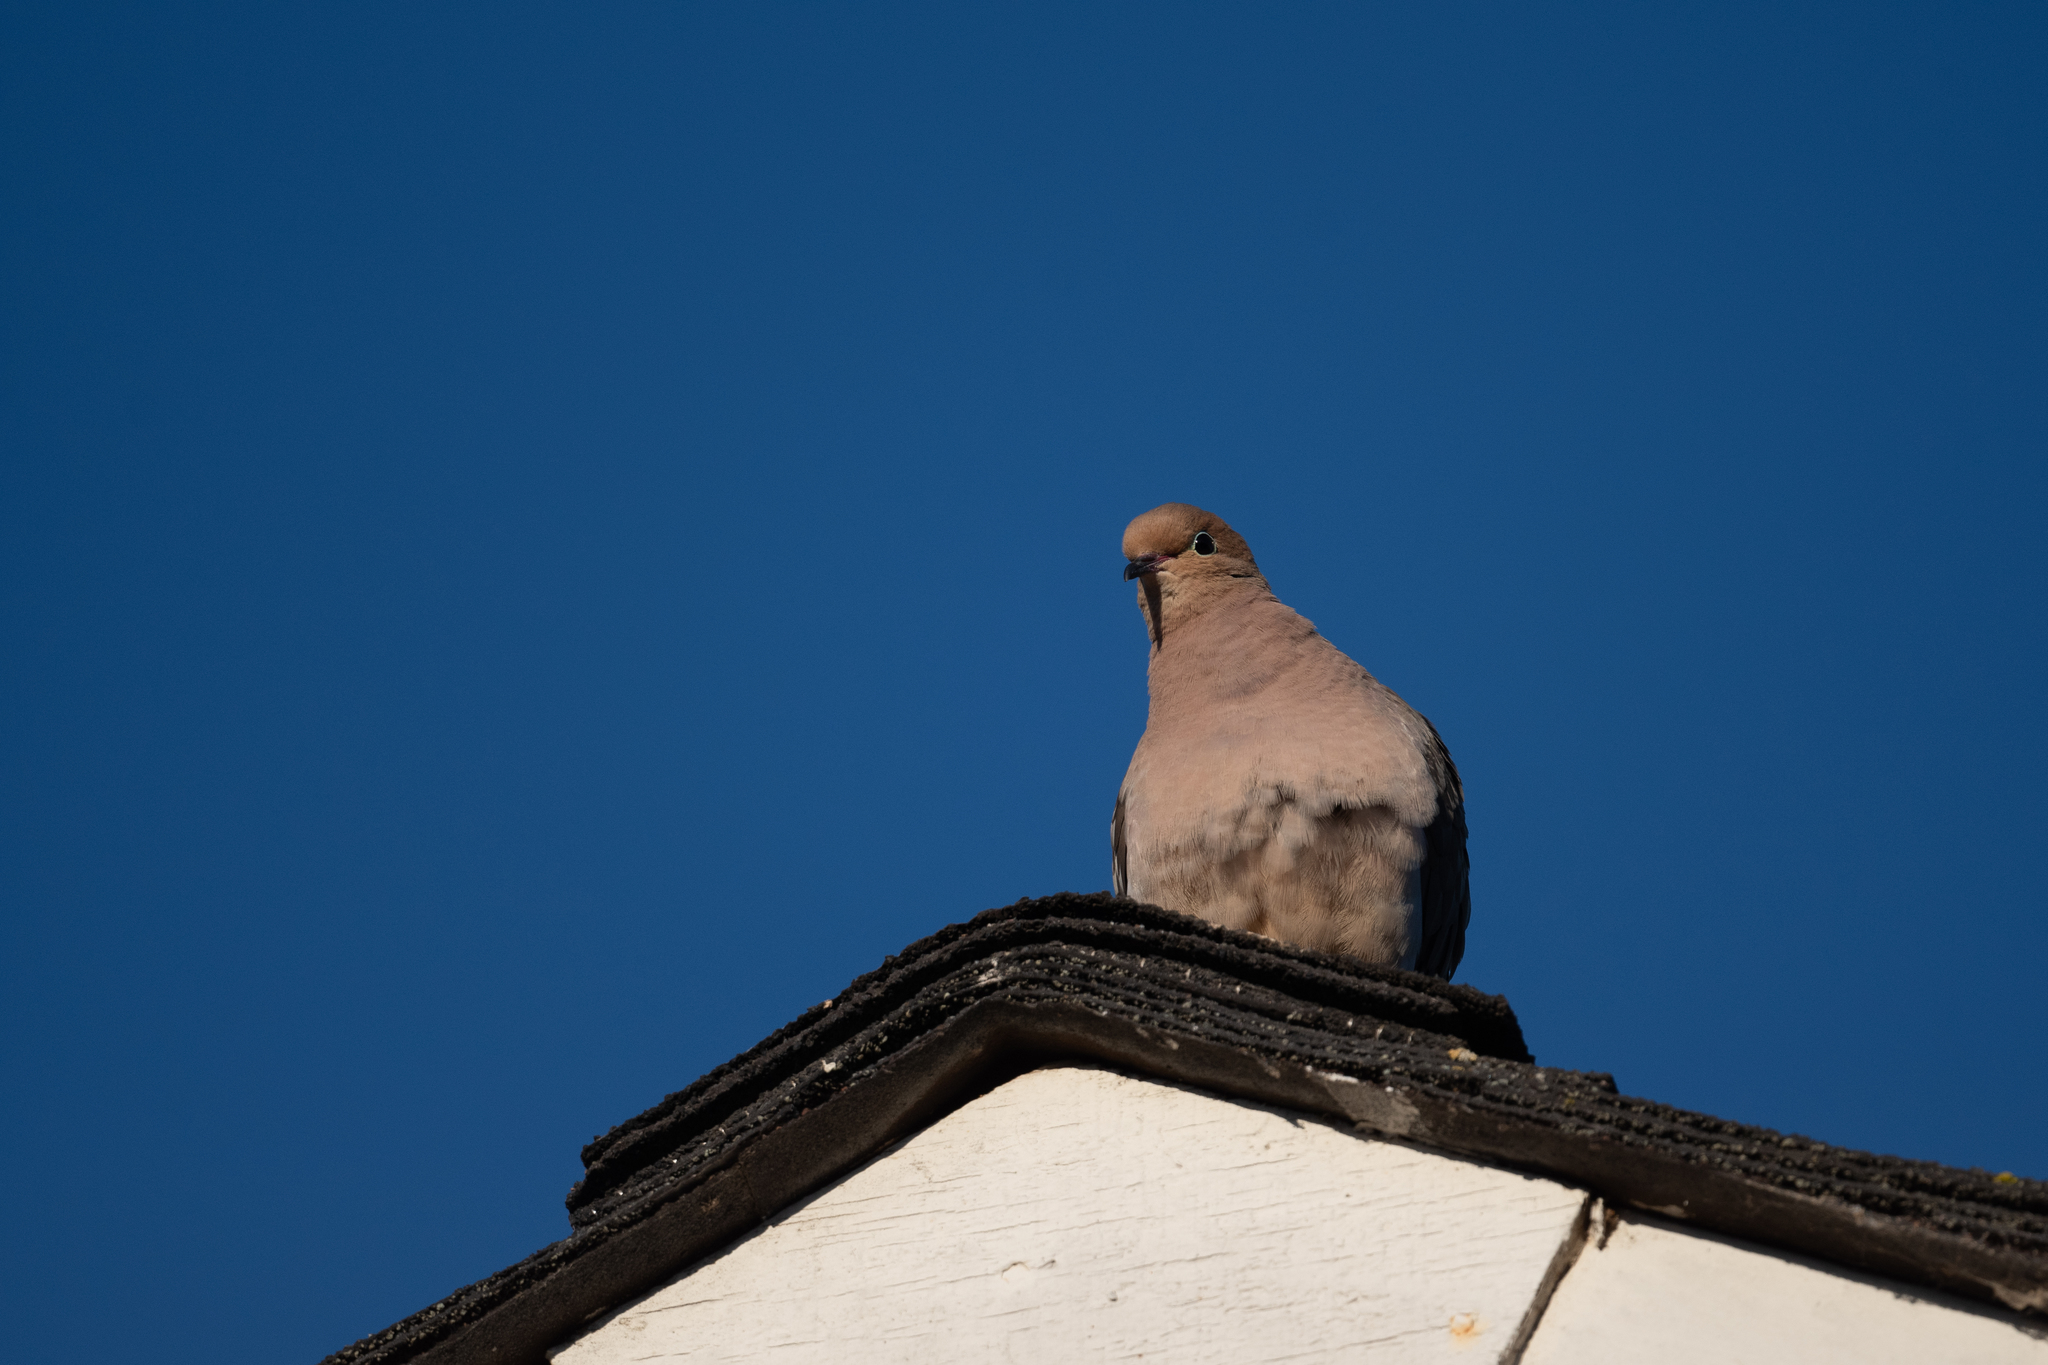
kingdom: Animalia
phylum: Chordata
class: Aves
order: Columbiformes
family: Columbidae
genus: Zenaida
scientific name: Zenaida macroura
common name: Mourning dove
